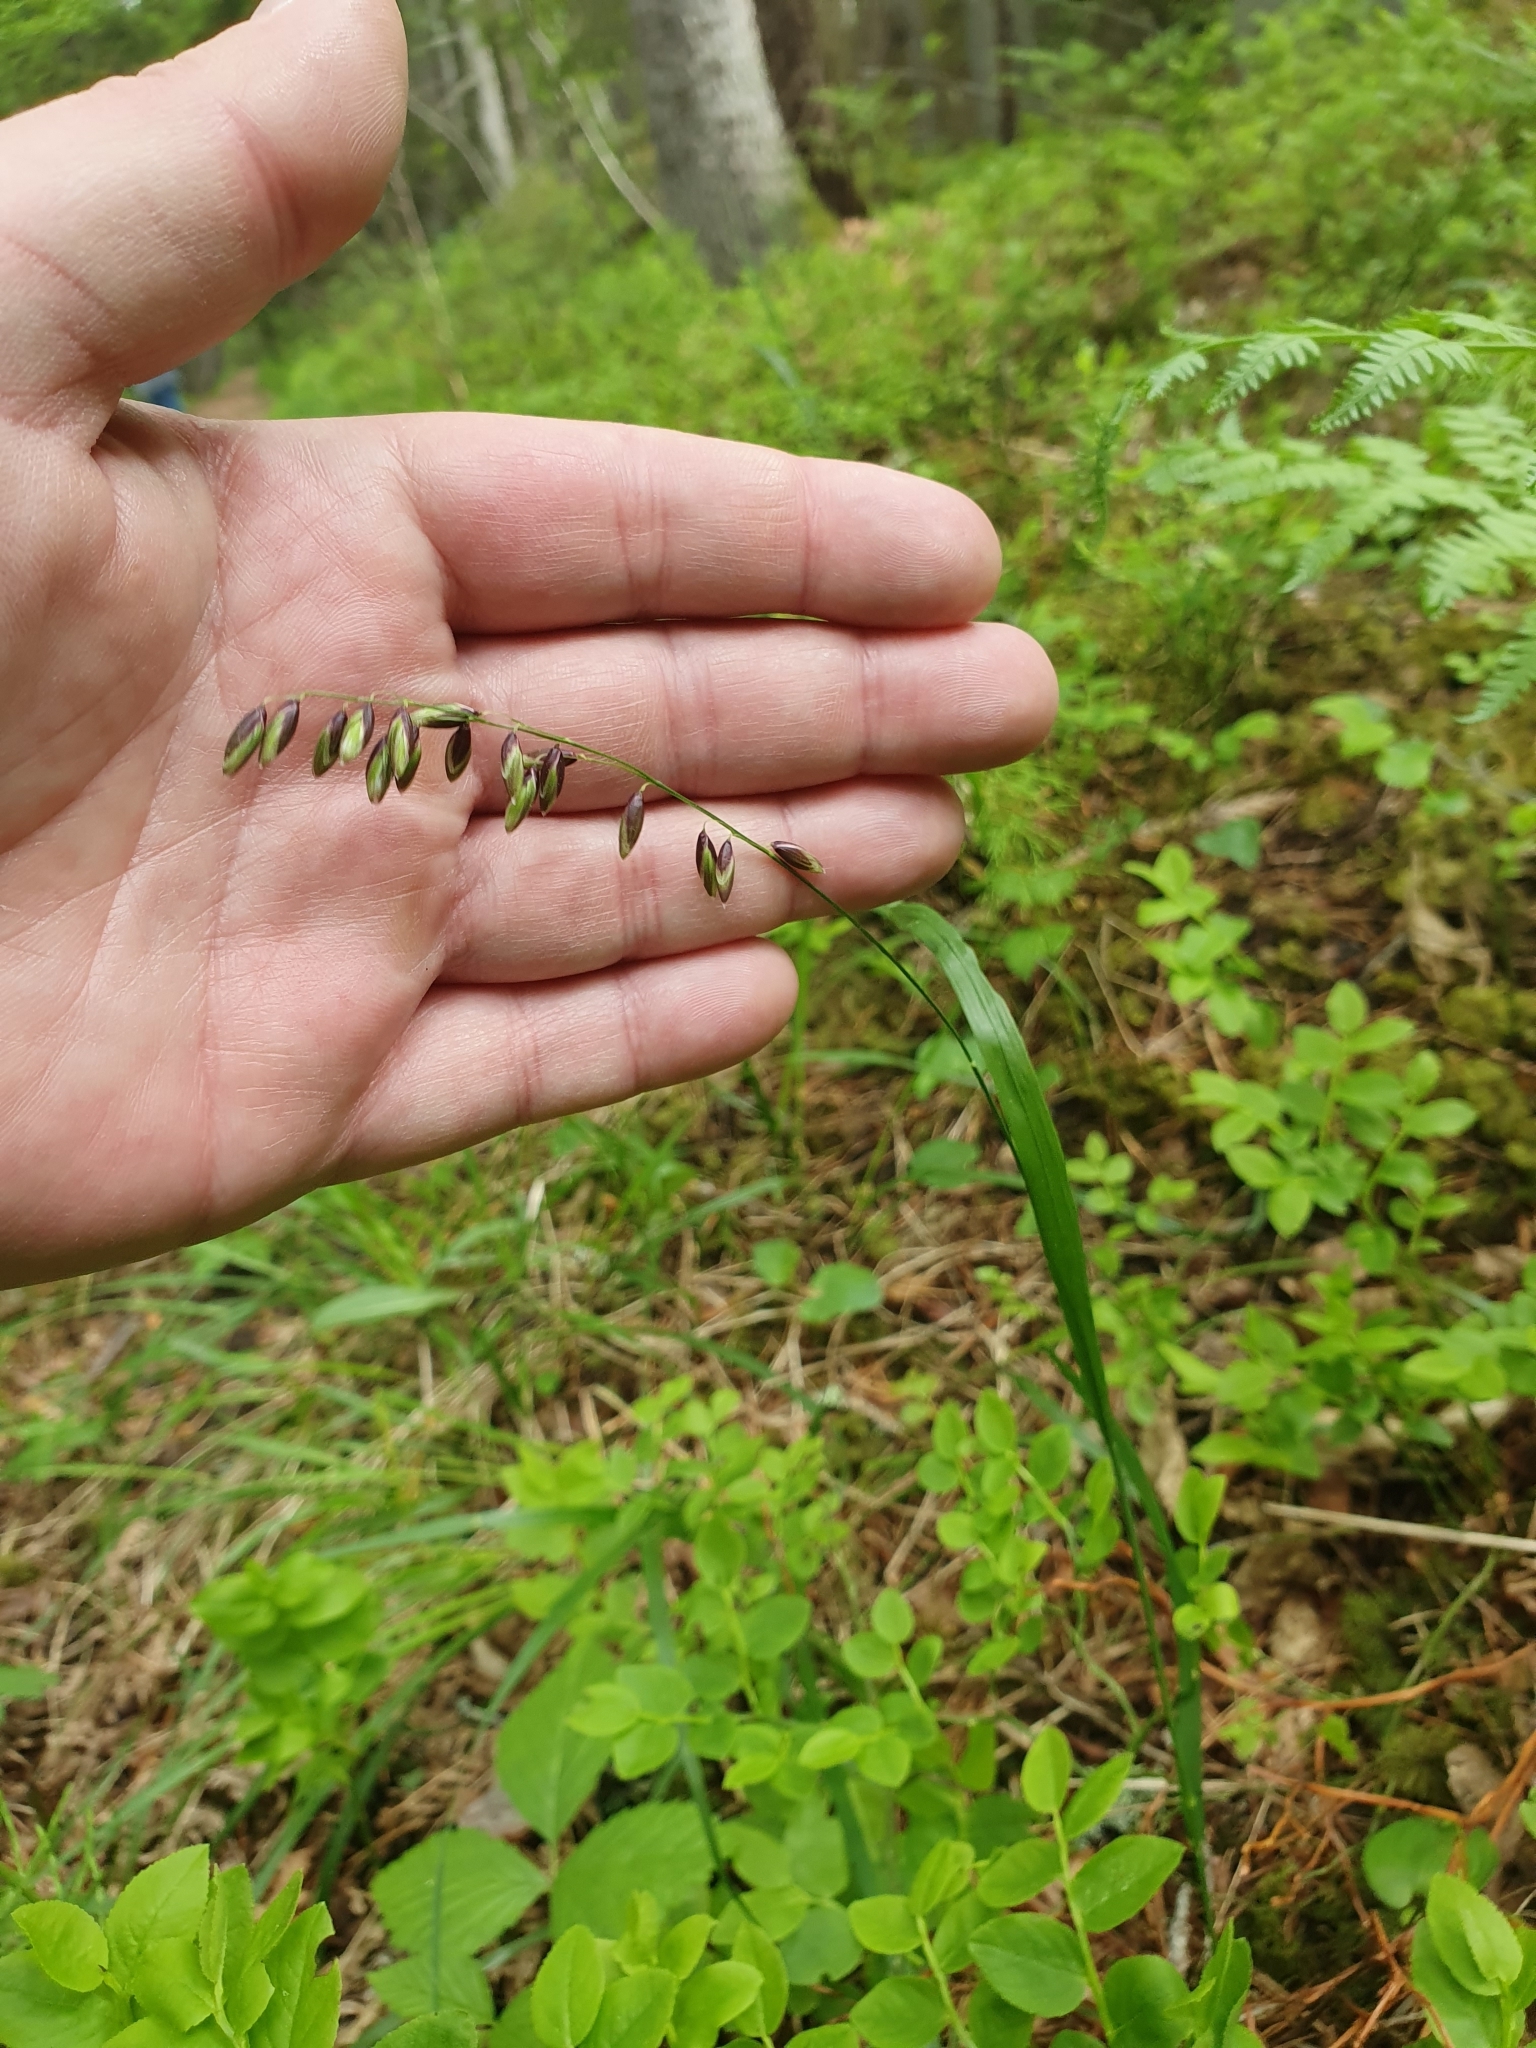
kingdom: Plantae
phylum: Tracheophyta
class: Liliopsida
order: Poales
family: Poaceae
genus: Melica
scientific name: Melica nutans
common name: Mountain melick
